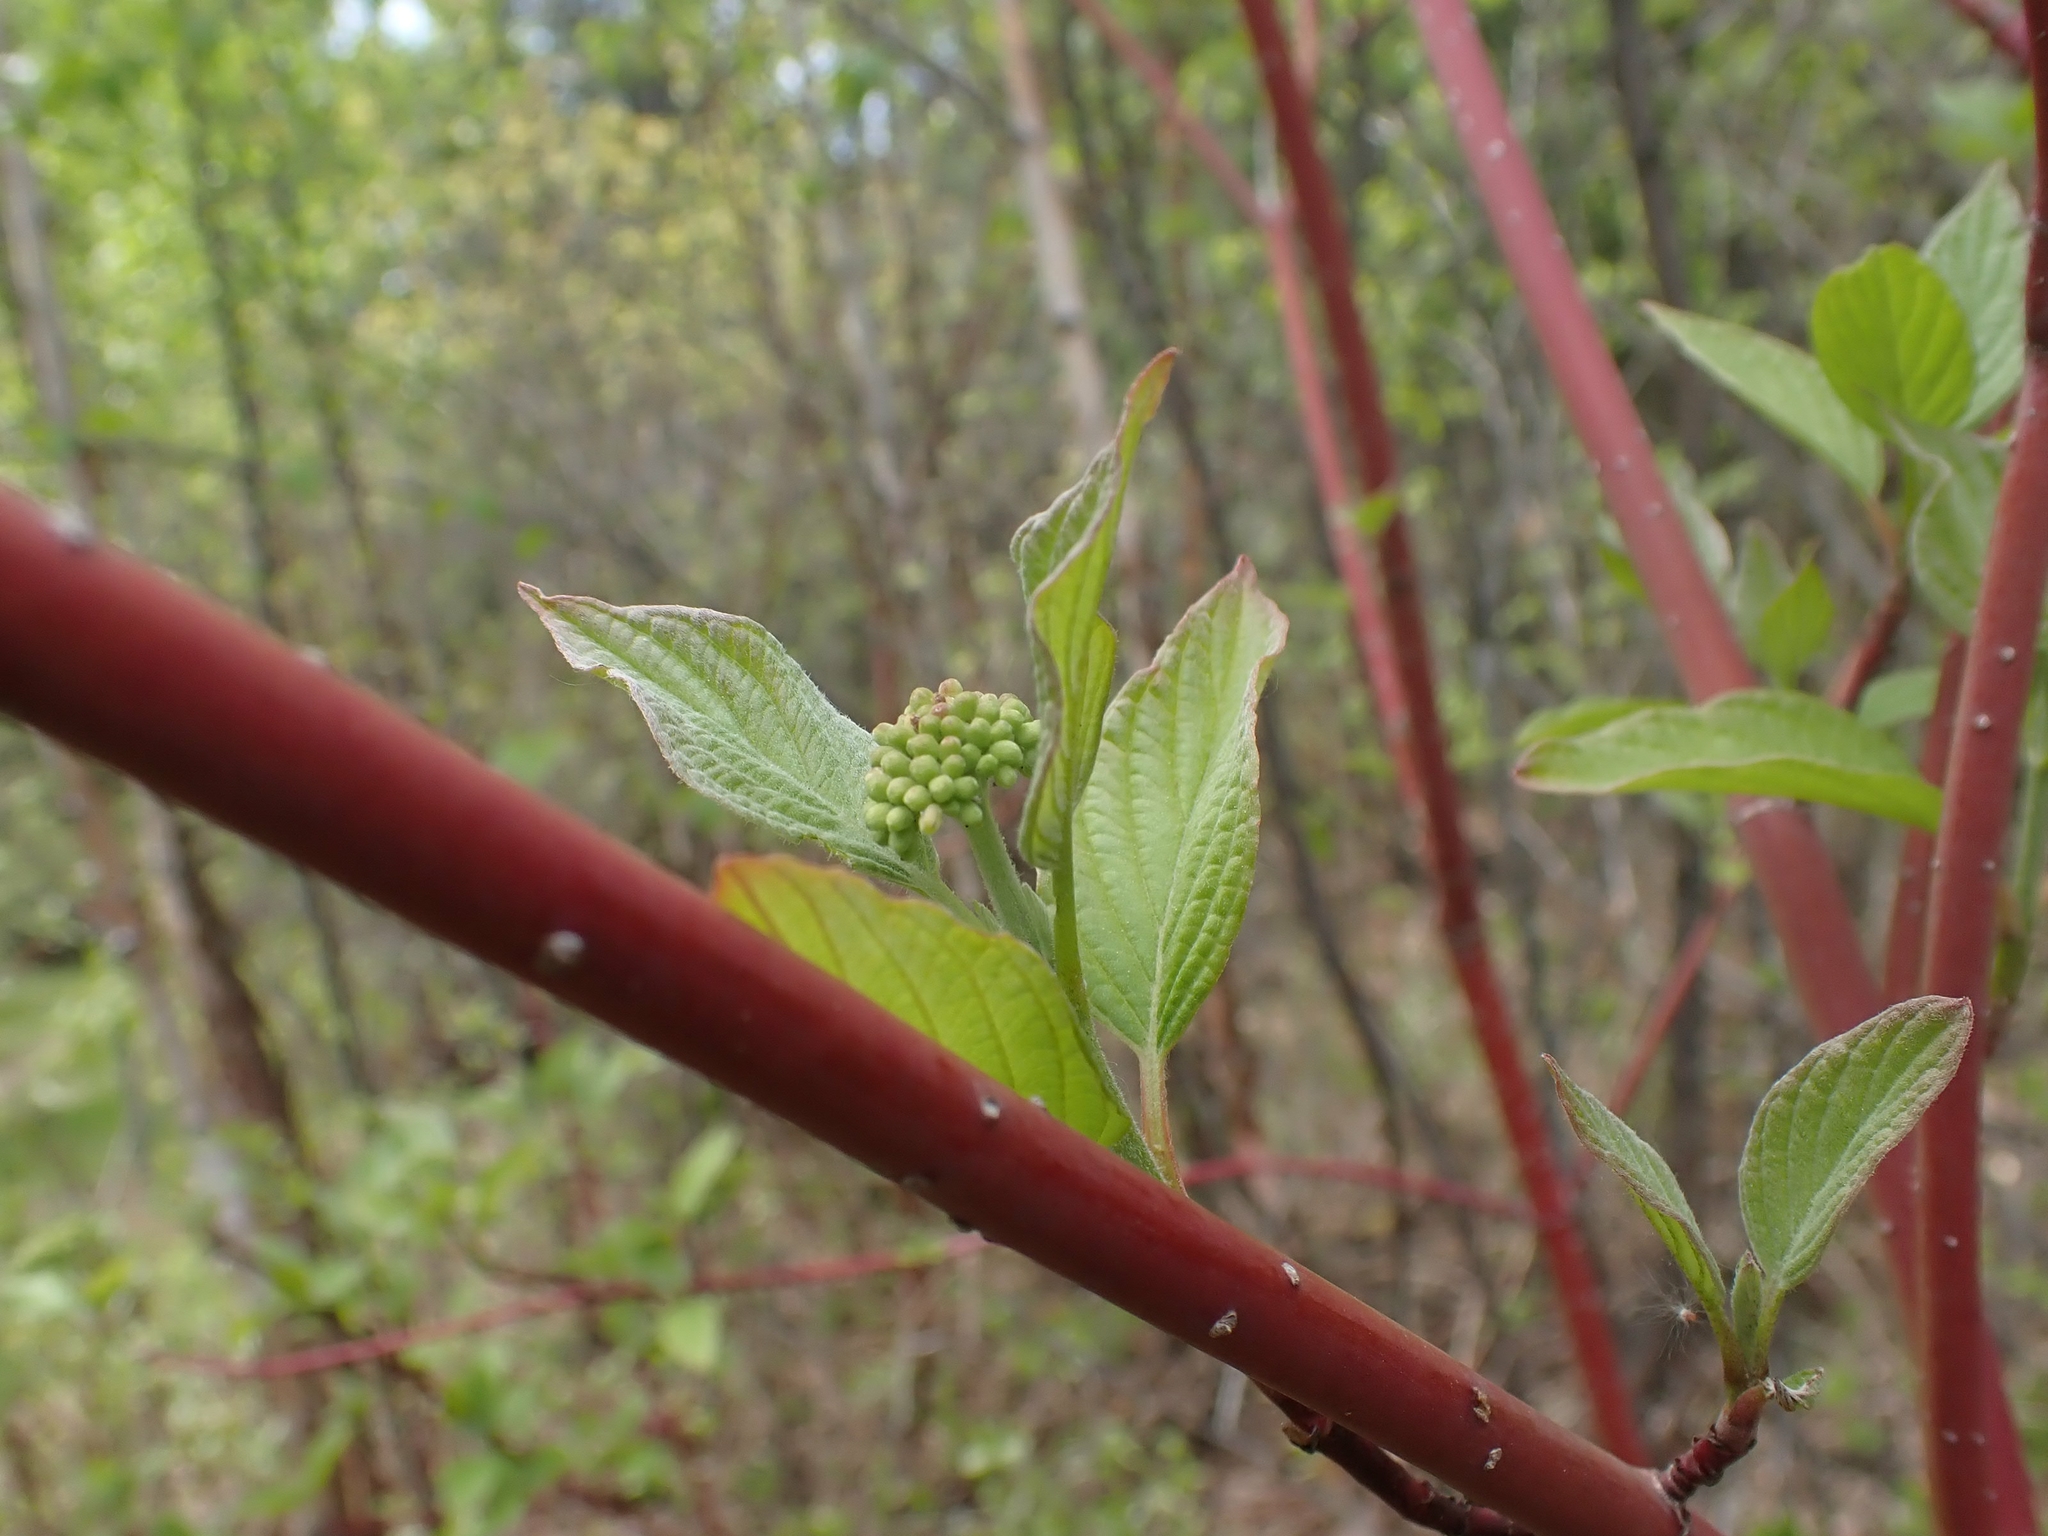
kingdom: Plantae
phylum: Tracheophyta
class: Magnoliopsida
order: Cornales
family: Cornaceae
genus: Cornus
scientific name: Cornus sericea
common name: Red-osier dogwood
